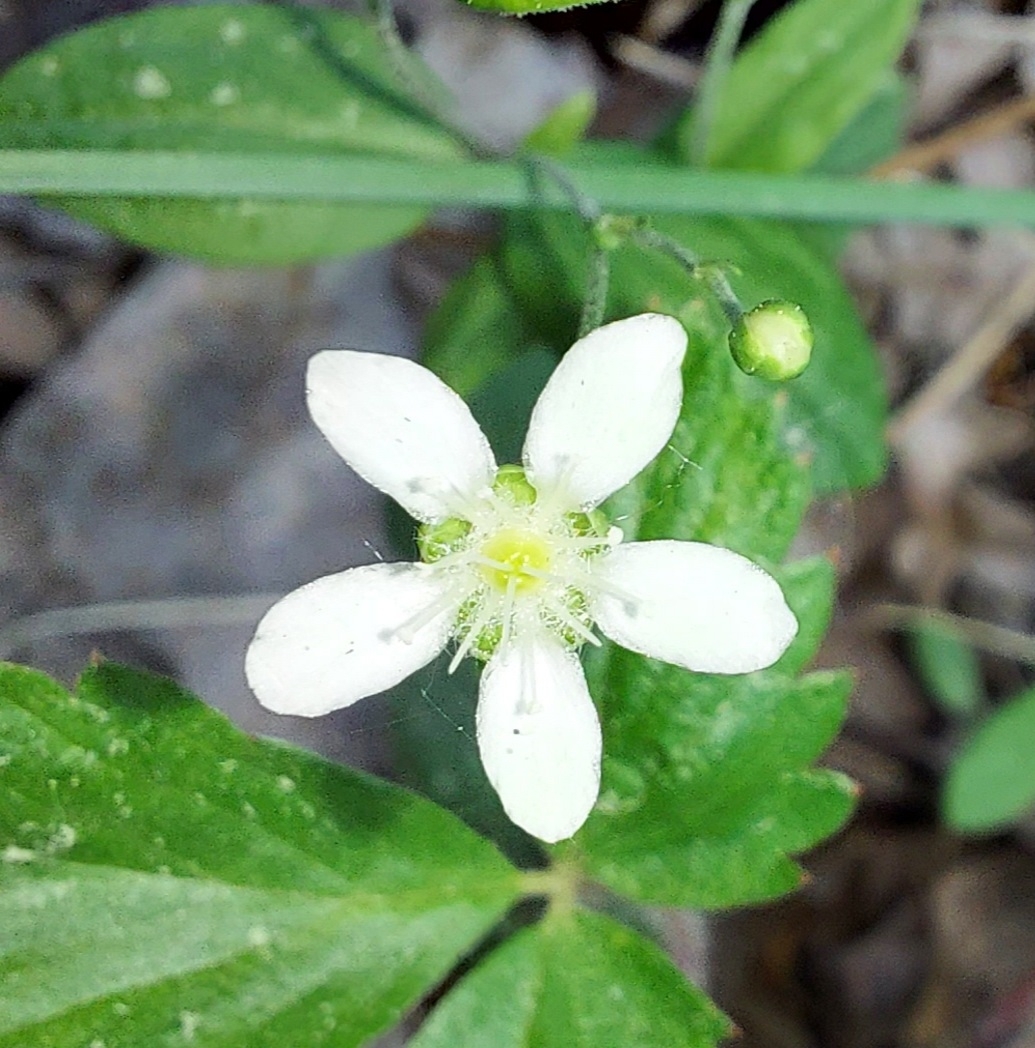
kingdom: Plantae
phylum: Tracheophyta
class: Magnoliopsida
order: Caryophyllales
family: Caryophyllaceae
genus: Moehringia
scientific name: Moehringia lateriflora
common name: Blunt-leaved sandwort
